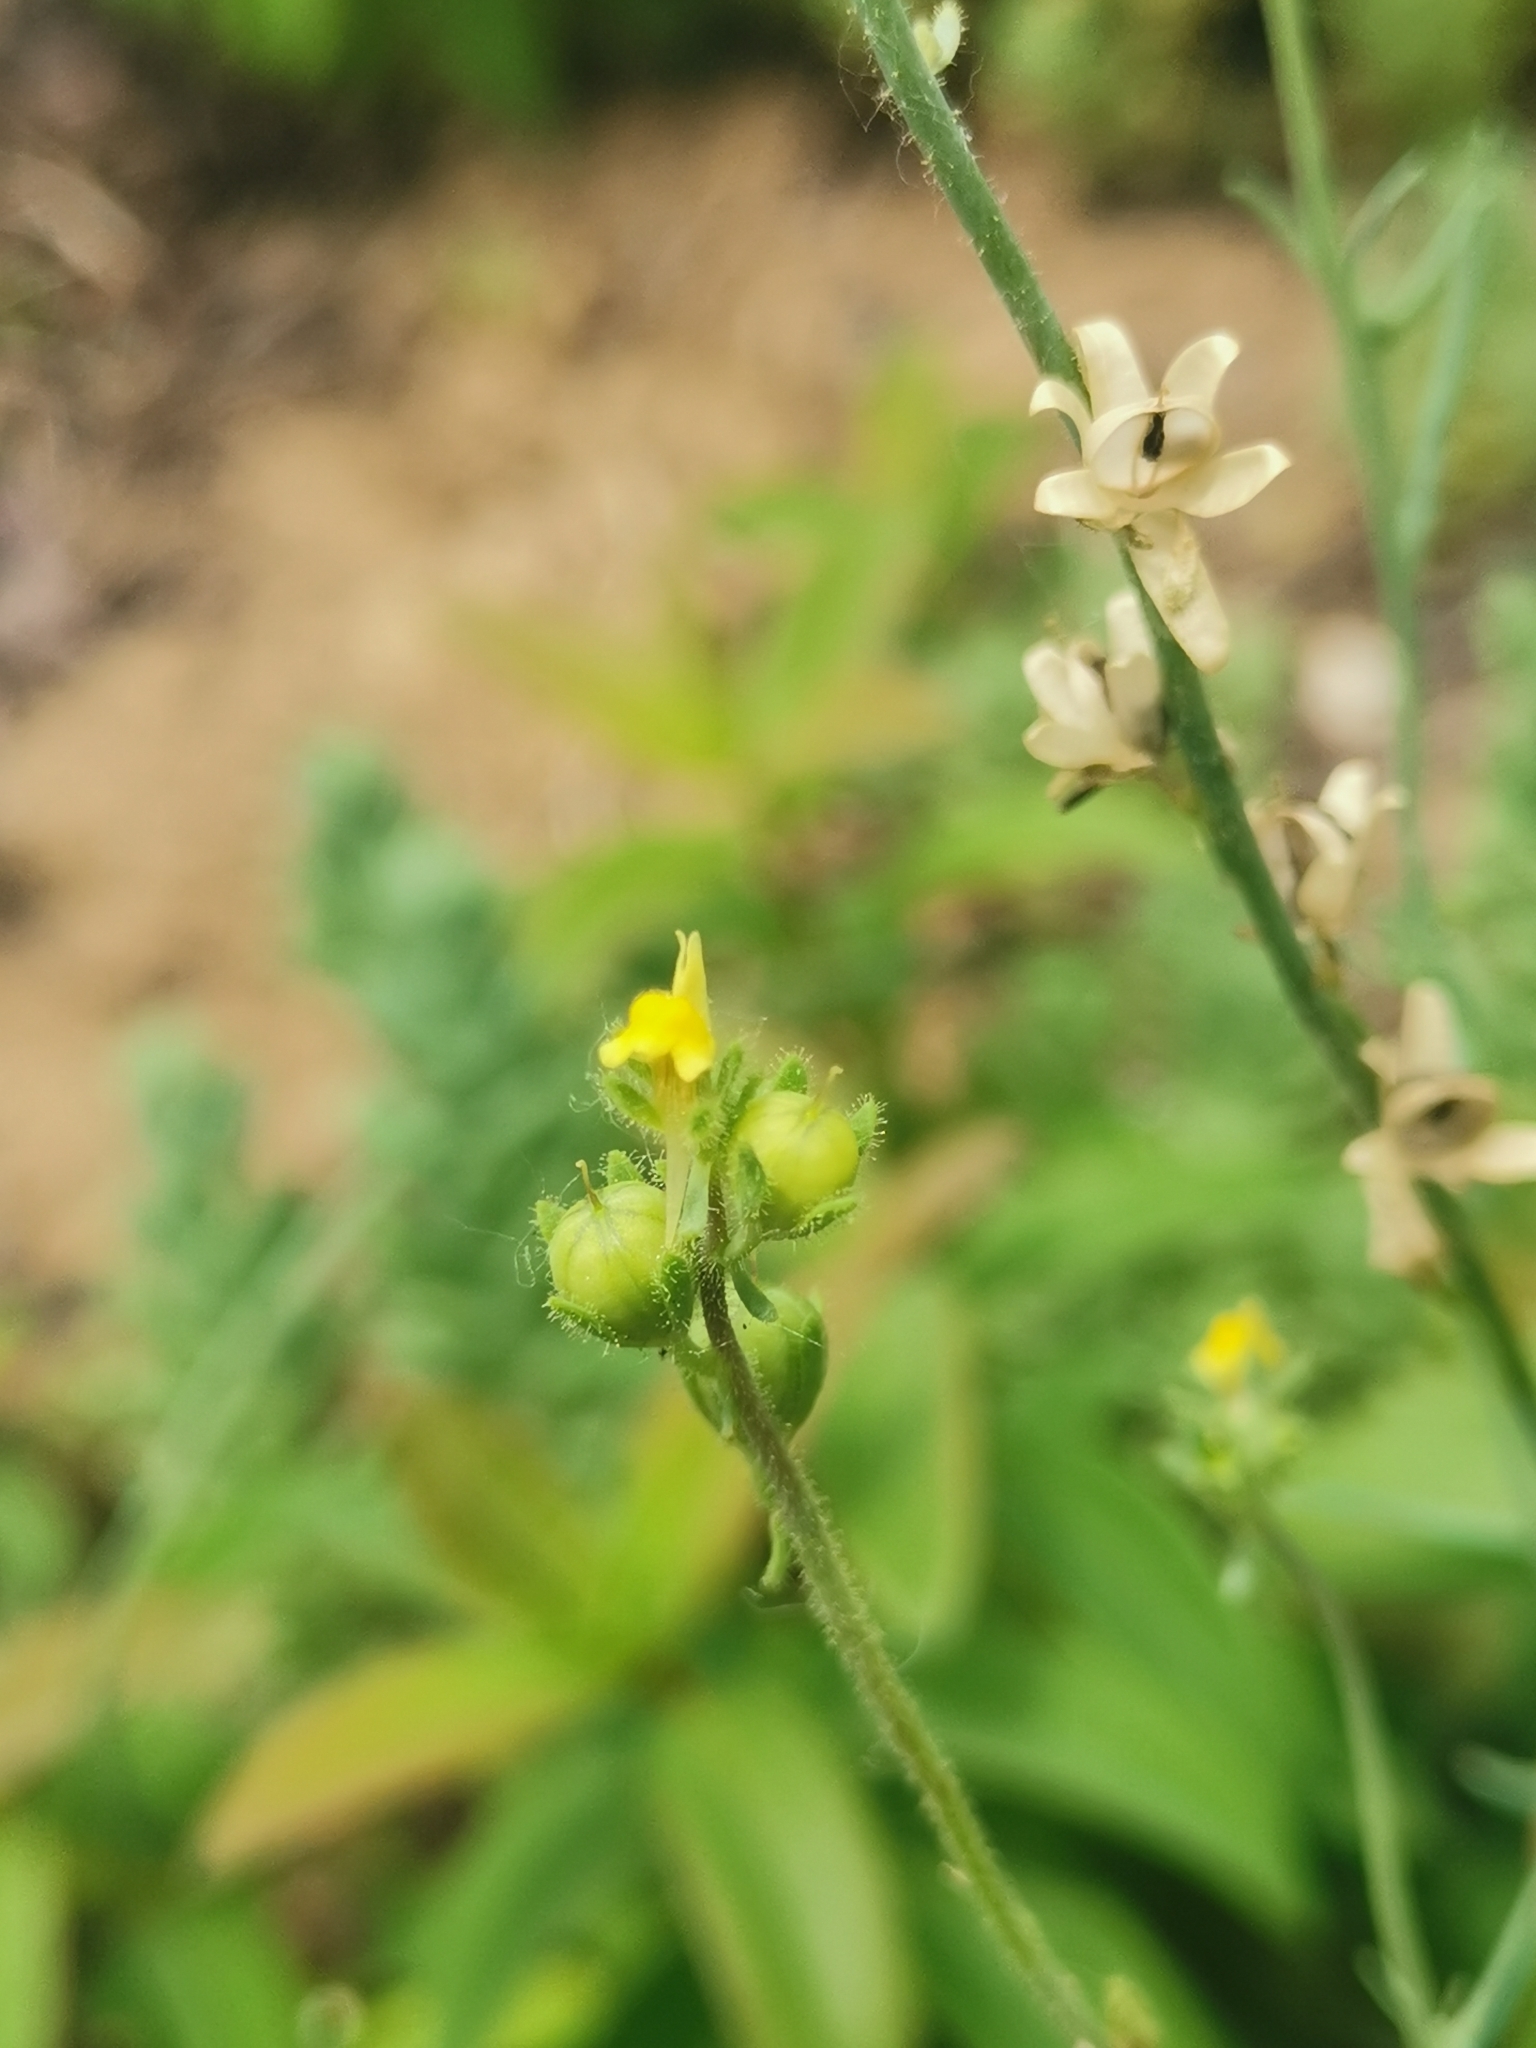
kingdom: Plantae
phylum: Tracheophyta
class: Magnoliopsida
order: Lamiales
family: Plantaginaceae
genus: Linaria
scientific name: Linaria simplex
